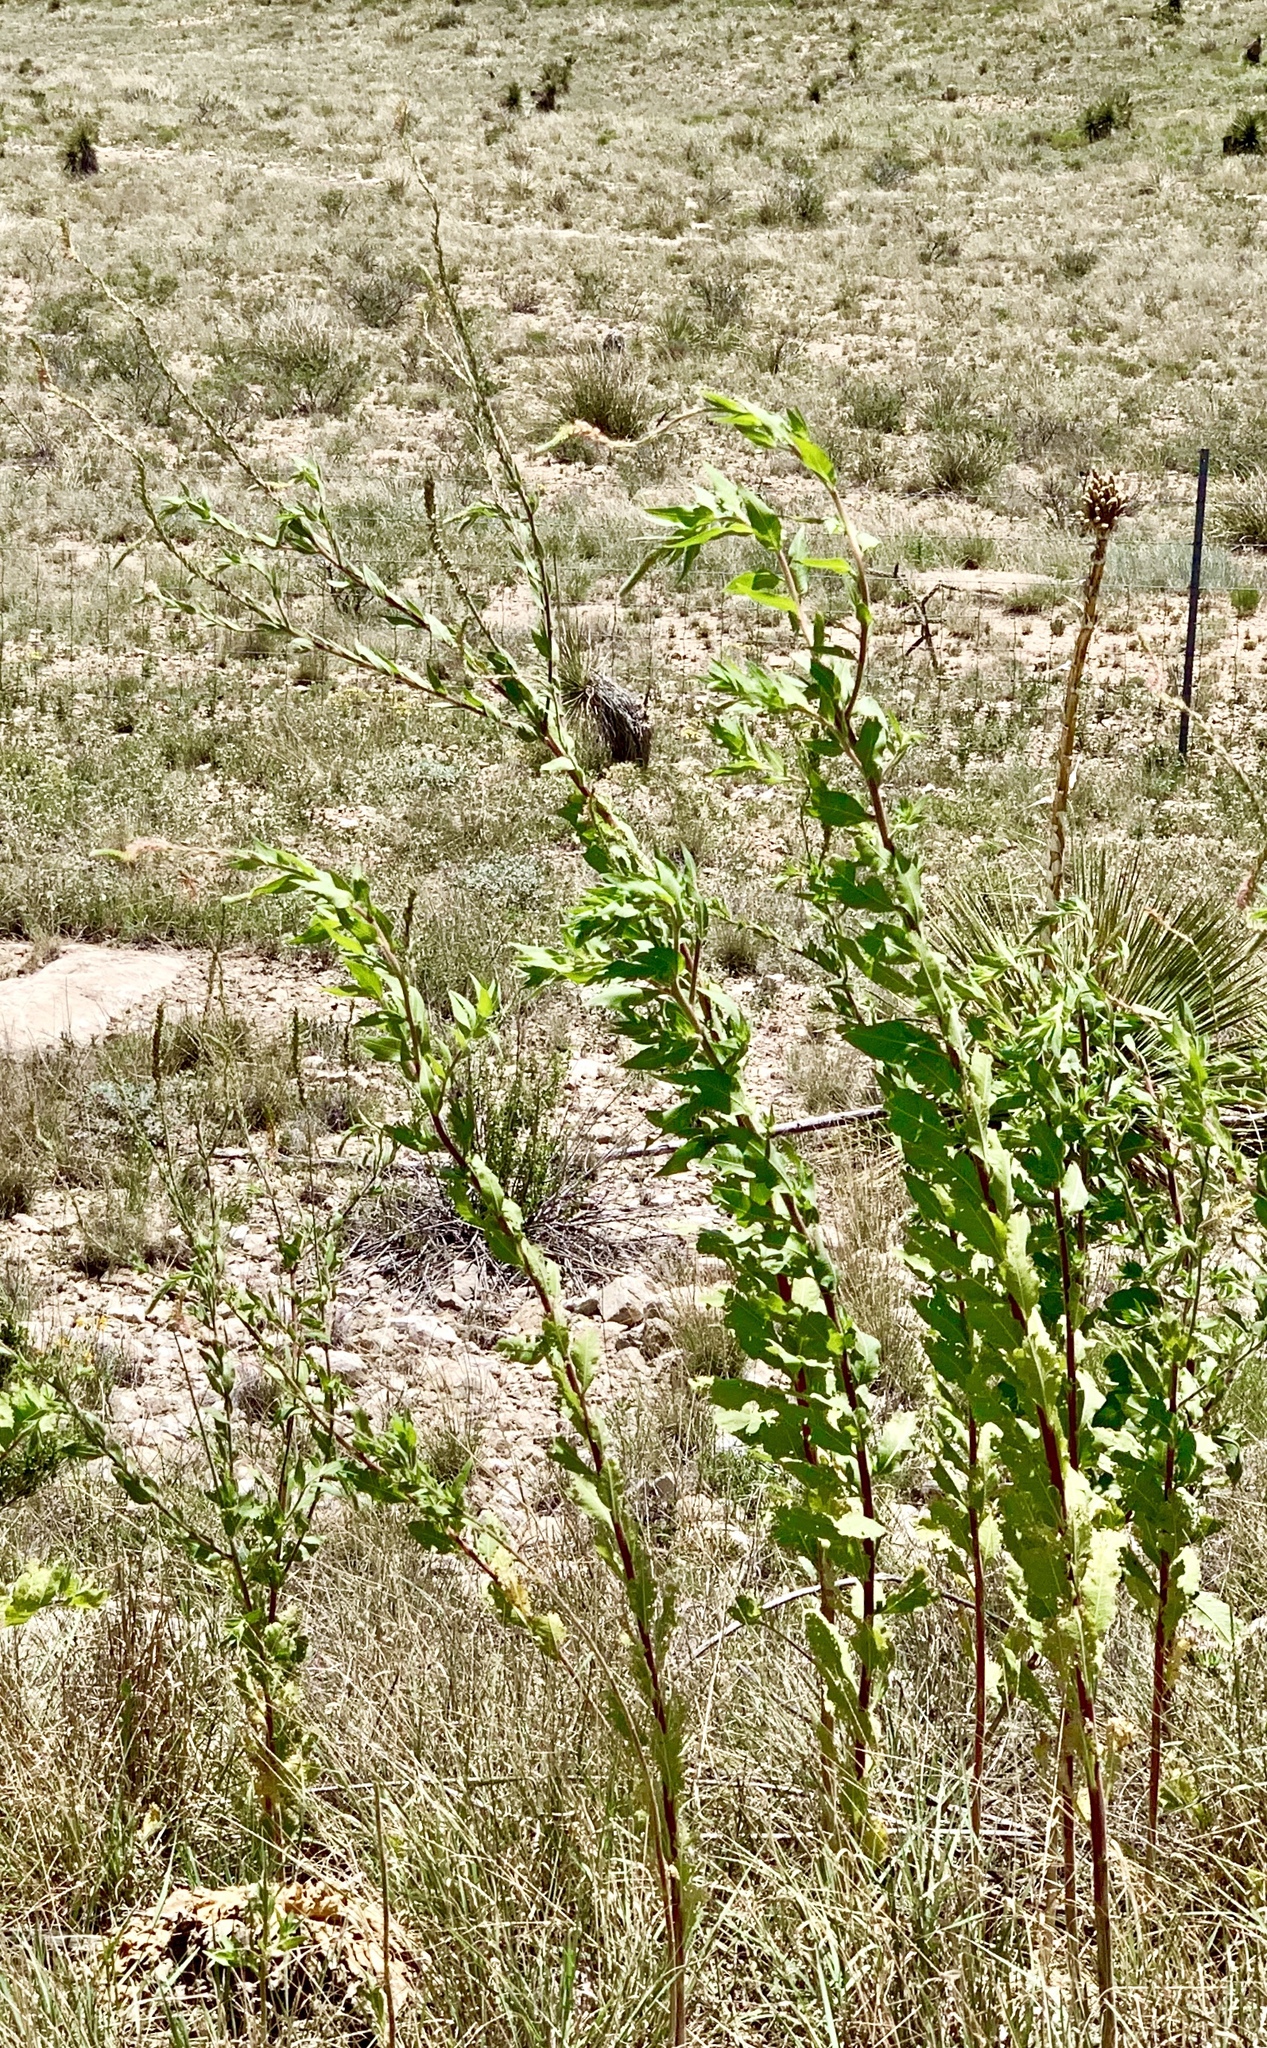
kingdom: Plantae
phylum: Tracheophyta
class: Magnoliopsida
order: Myrtales
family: Onagraceae
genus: Oenothera
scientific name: Oenothera curtiflora
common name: Velvetweed
